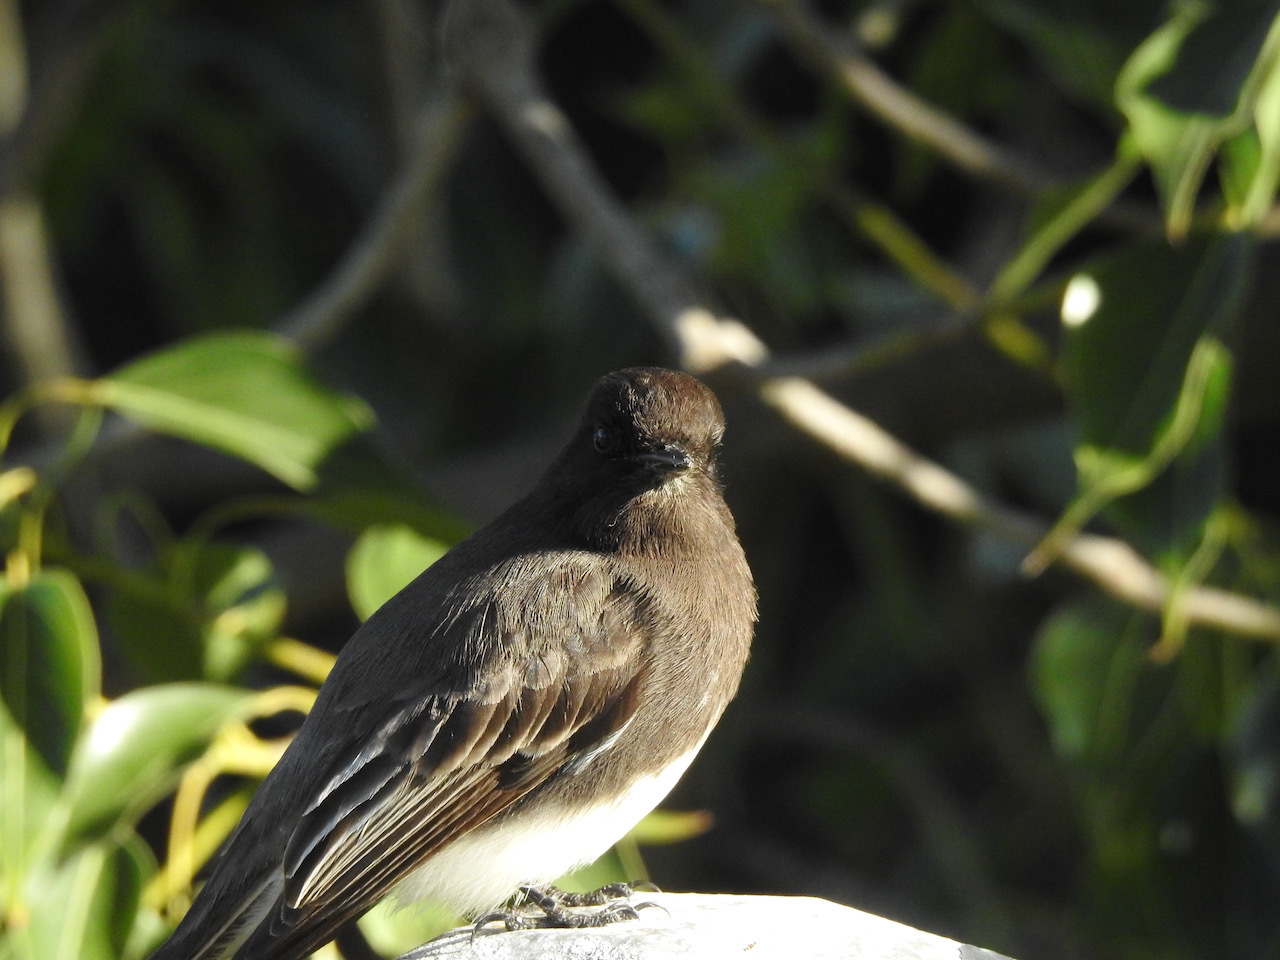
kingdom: Animalia
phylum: Chordata
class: Aves
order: Passeriformes
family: Tyrannidae
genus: Sayornis
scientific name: Sayornis nigricans
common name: Black phoebe
